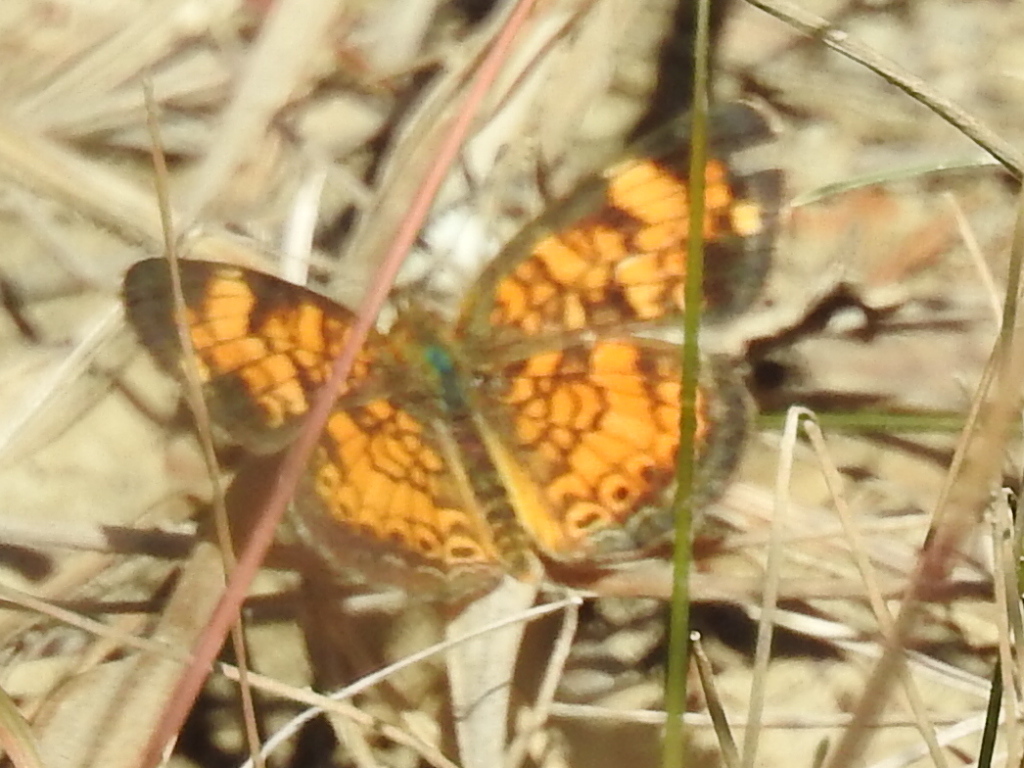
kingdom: Animalia
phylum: Arthropoda
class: Insecta
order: Lepidoptera
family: Nymphalidae
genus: Phyciodes
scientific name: Phyciodes tharos
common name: Pearl crescent
